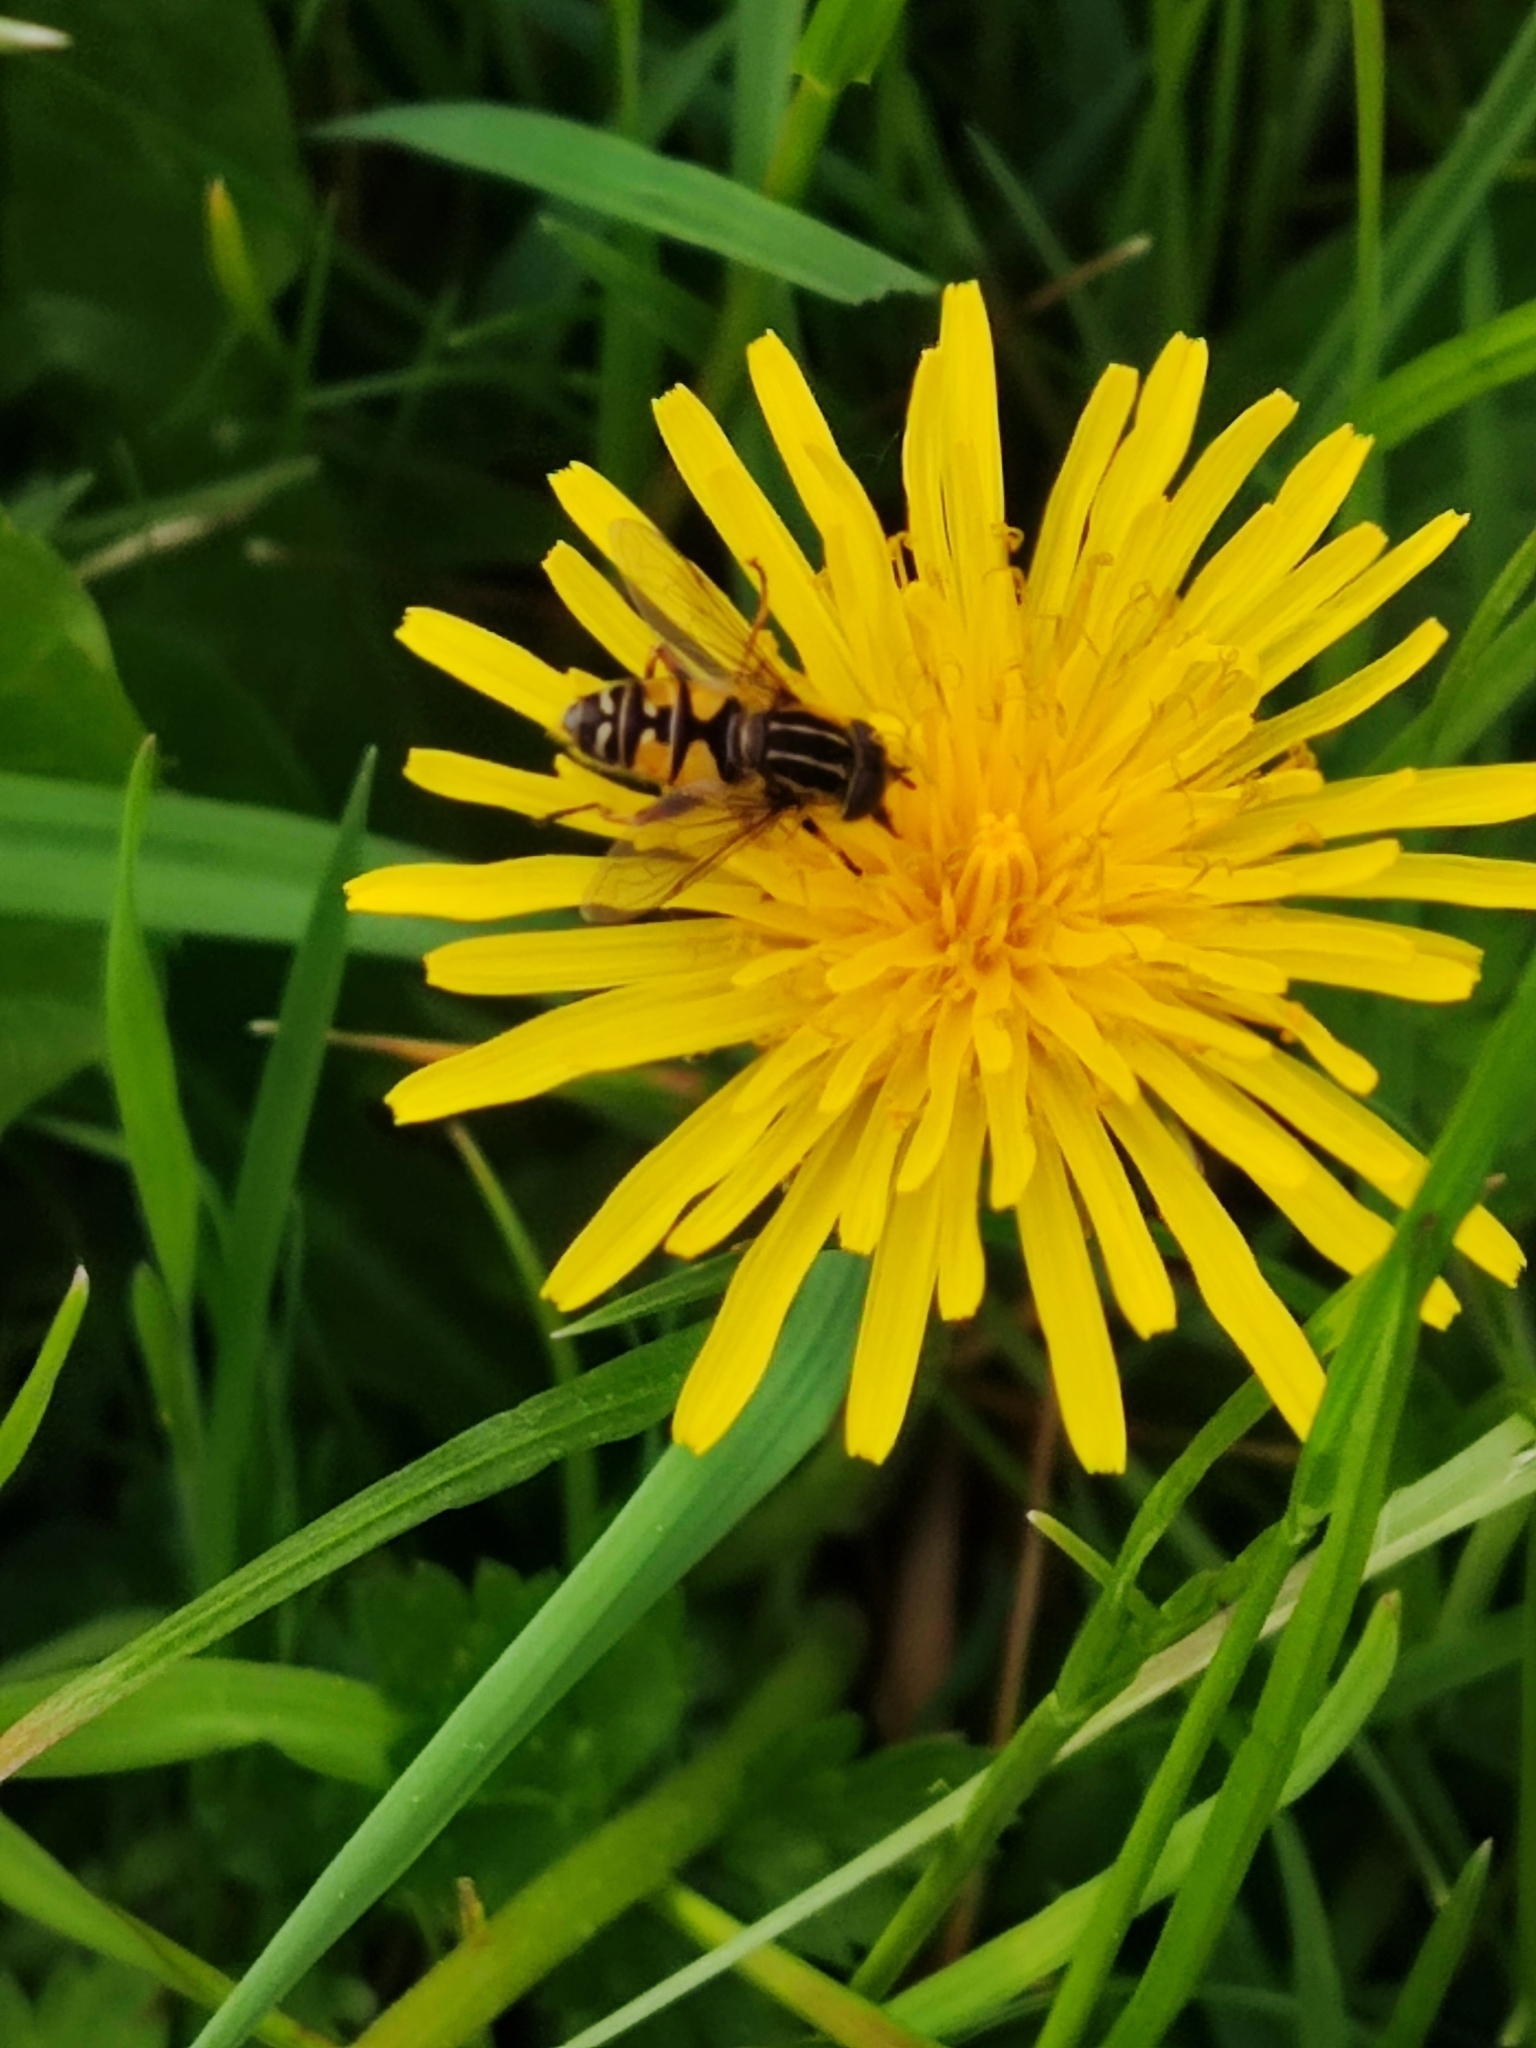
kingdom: Animalia
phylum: Arthropoda
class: Insecta
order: Diptera
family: Syrphidae
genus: Helophilus
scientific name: Helophilus pendulus
